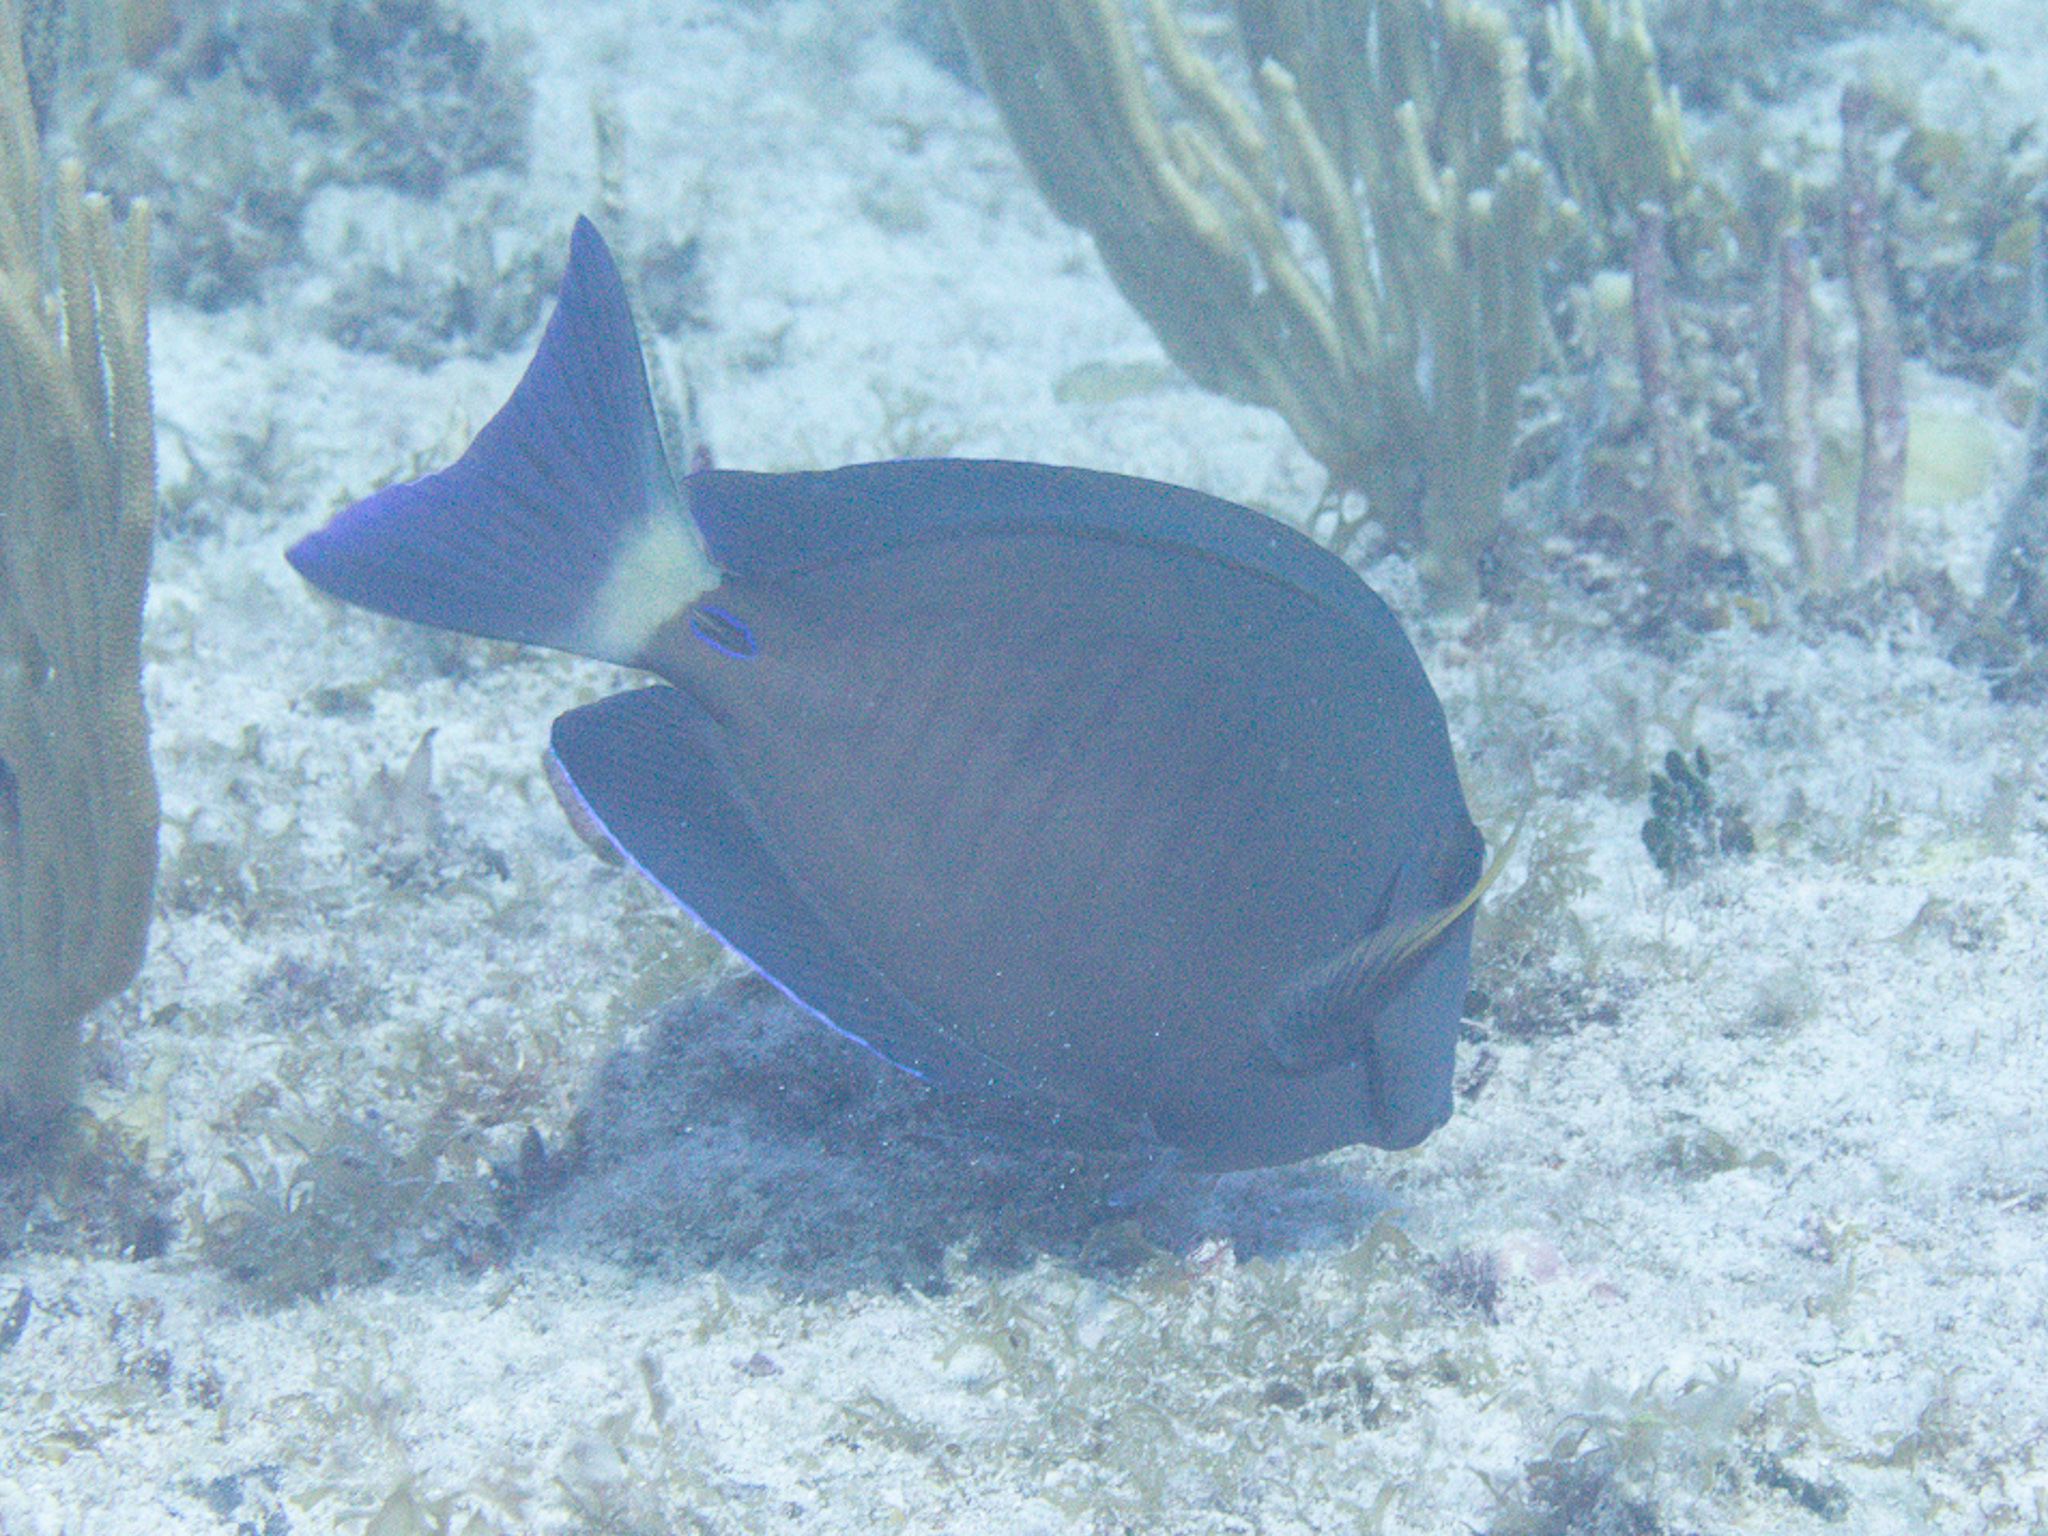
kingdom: Animalia
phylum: Chordata
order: Perciformes
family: Acanthuridae
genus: Acanthurus
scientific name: Acanthurus chirurgus
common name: Doctorfish
